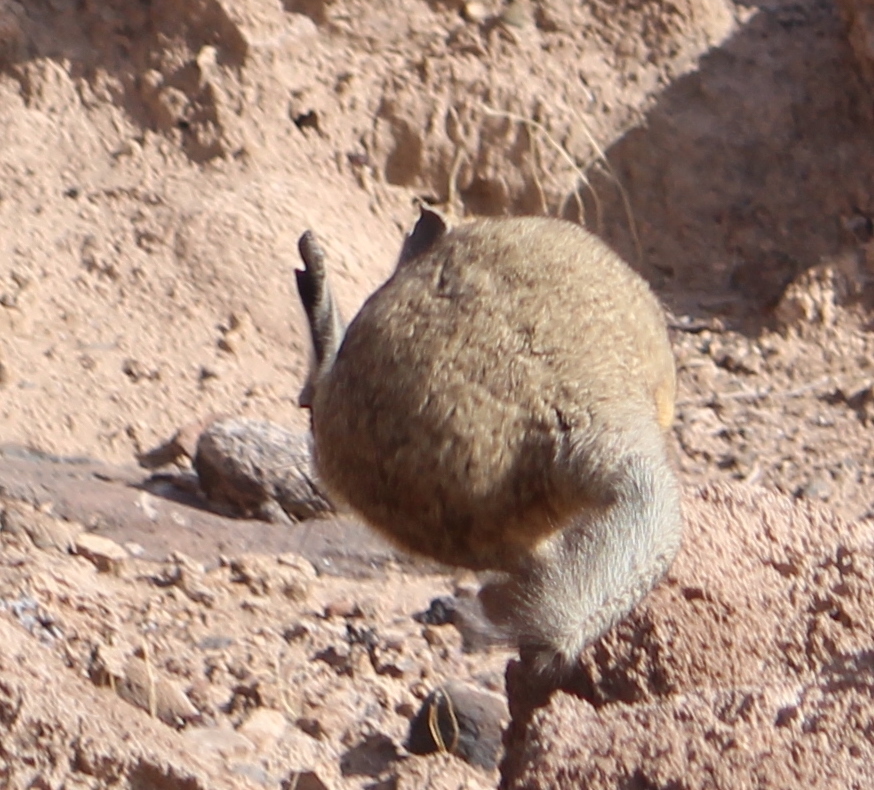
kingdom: Animalia
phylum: Chordata
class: Mammalia
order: Rodentia
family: Chinchillidae
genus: Lagidium
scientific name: Lagidium viscacia
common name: Southern viscacha
